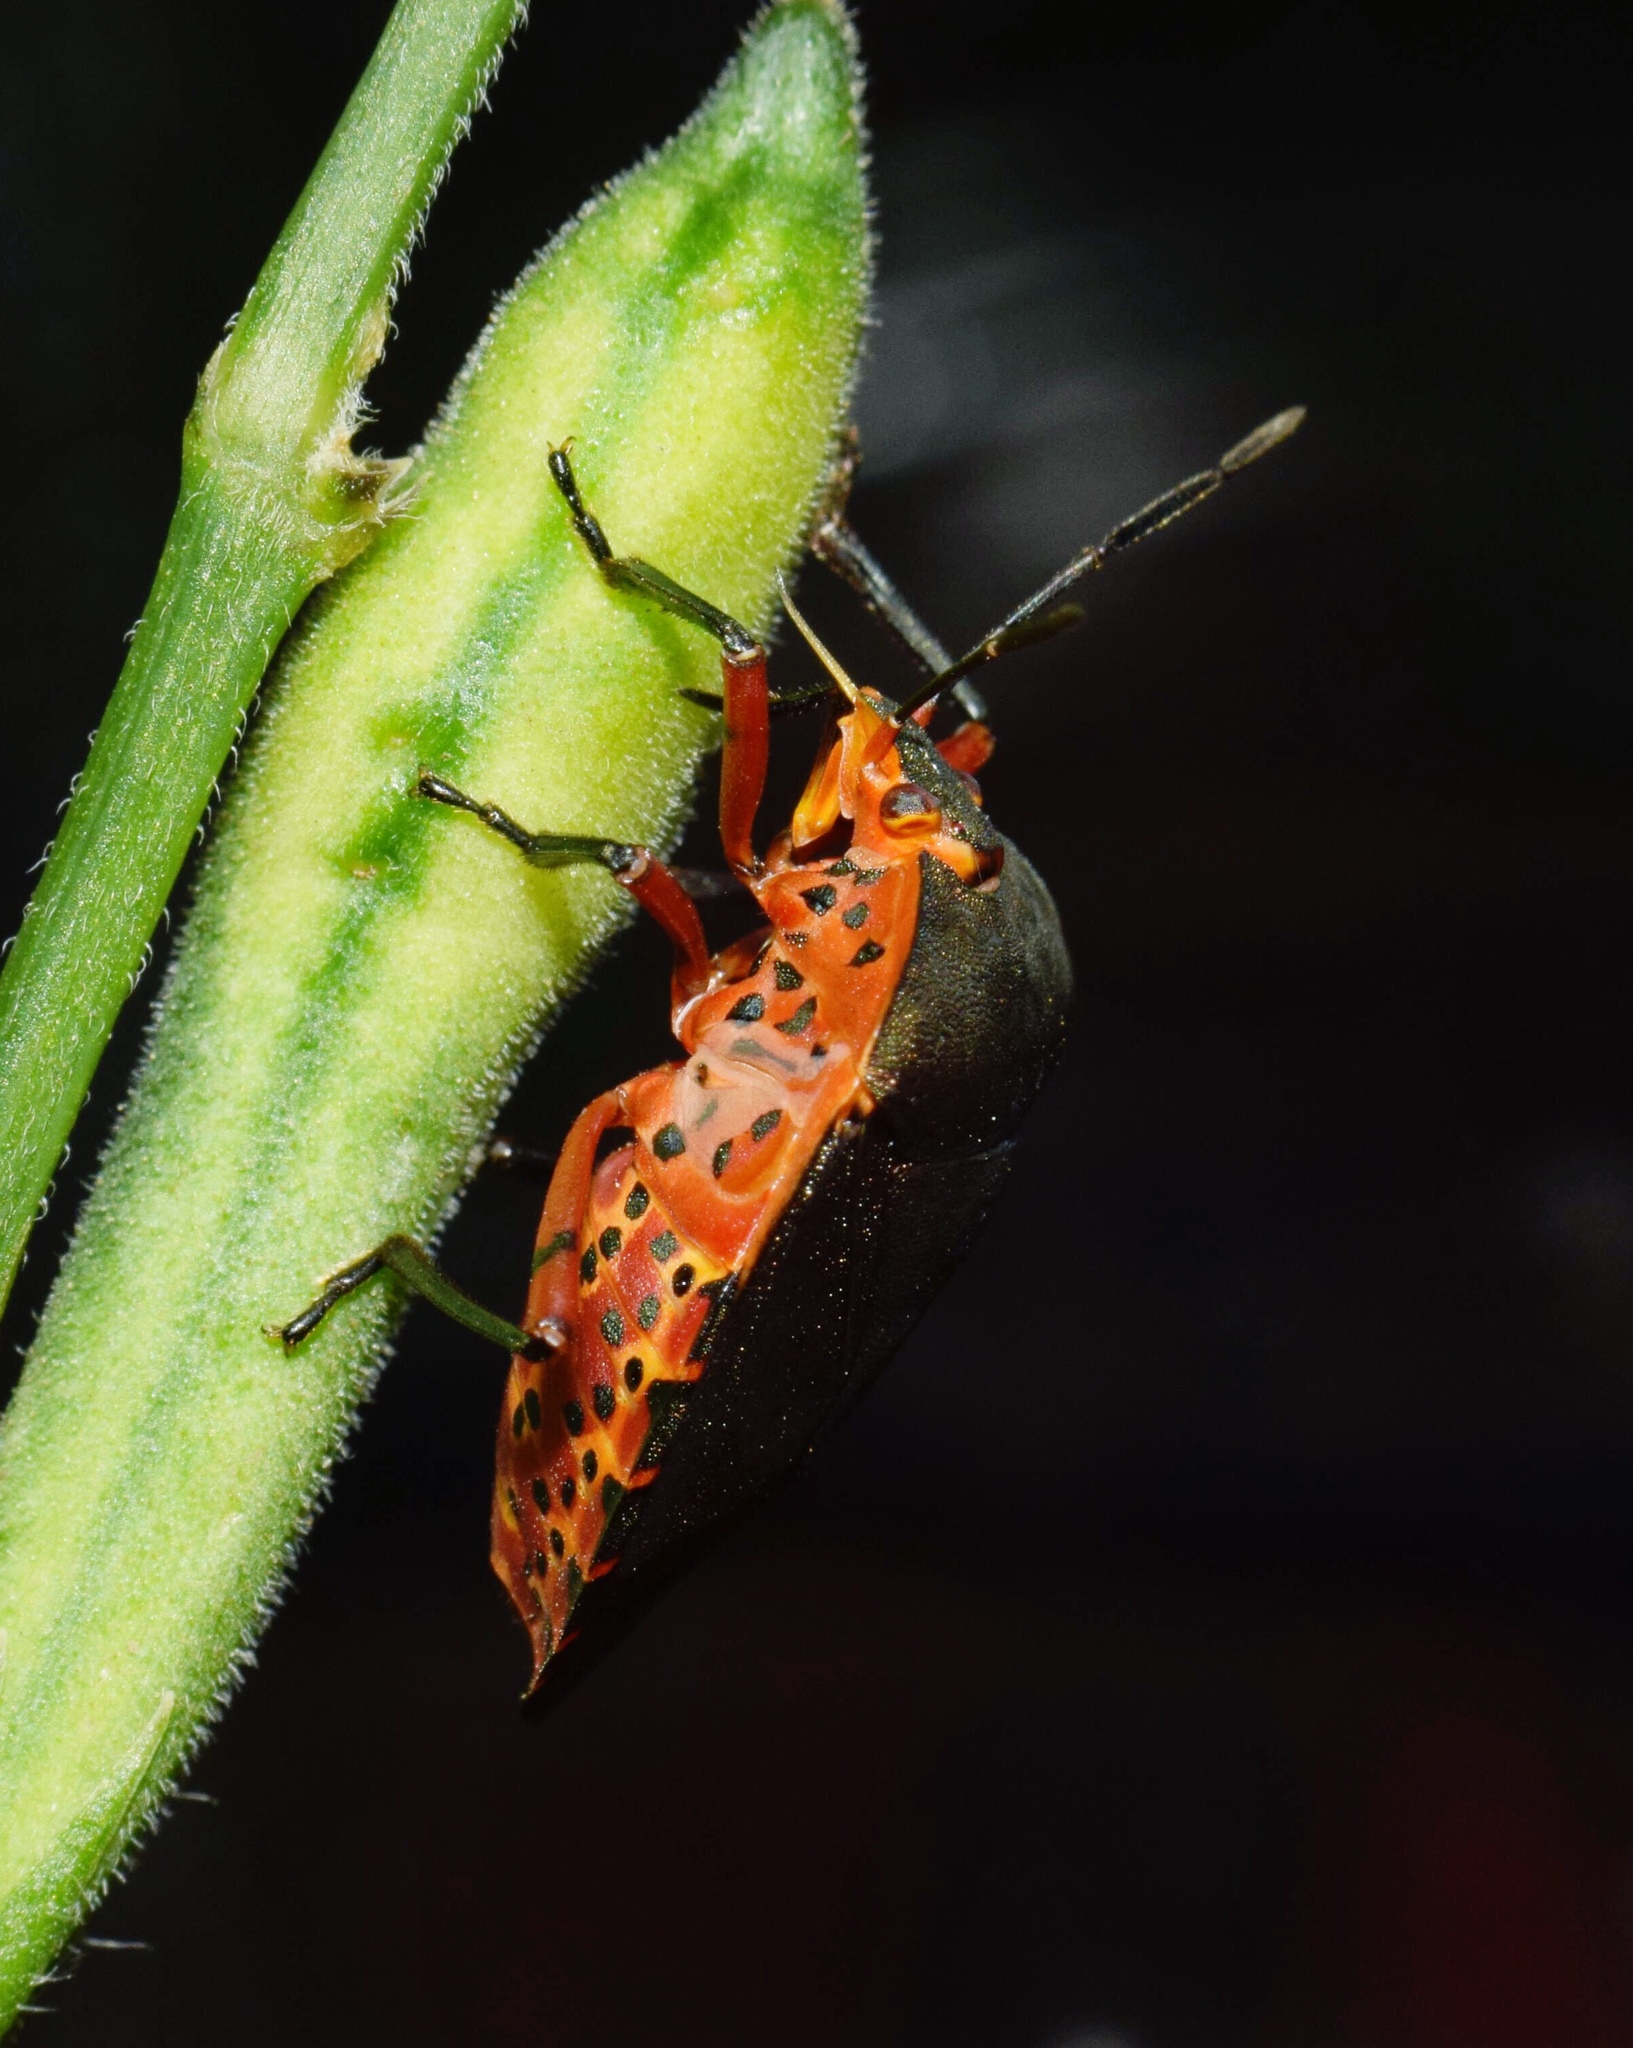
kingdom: Animalia
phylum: Arthropoda
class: Insecta
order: Hemiptera
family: Pentatomidae
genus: Caura
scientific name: Caura rufiventris
